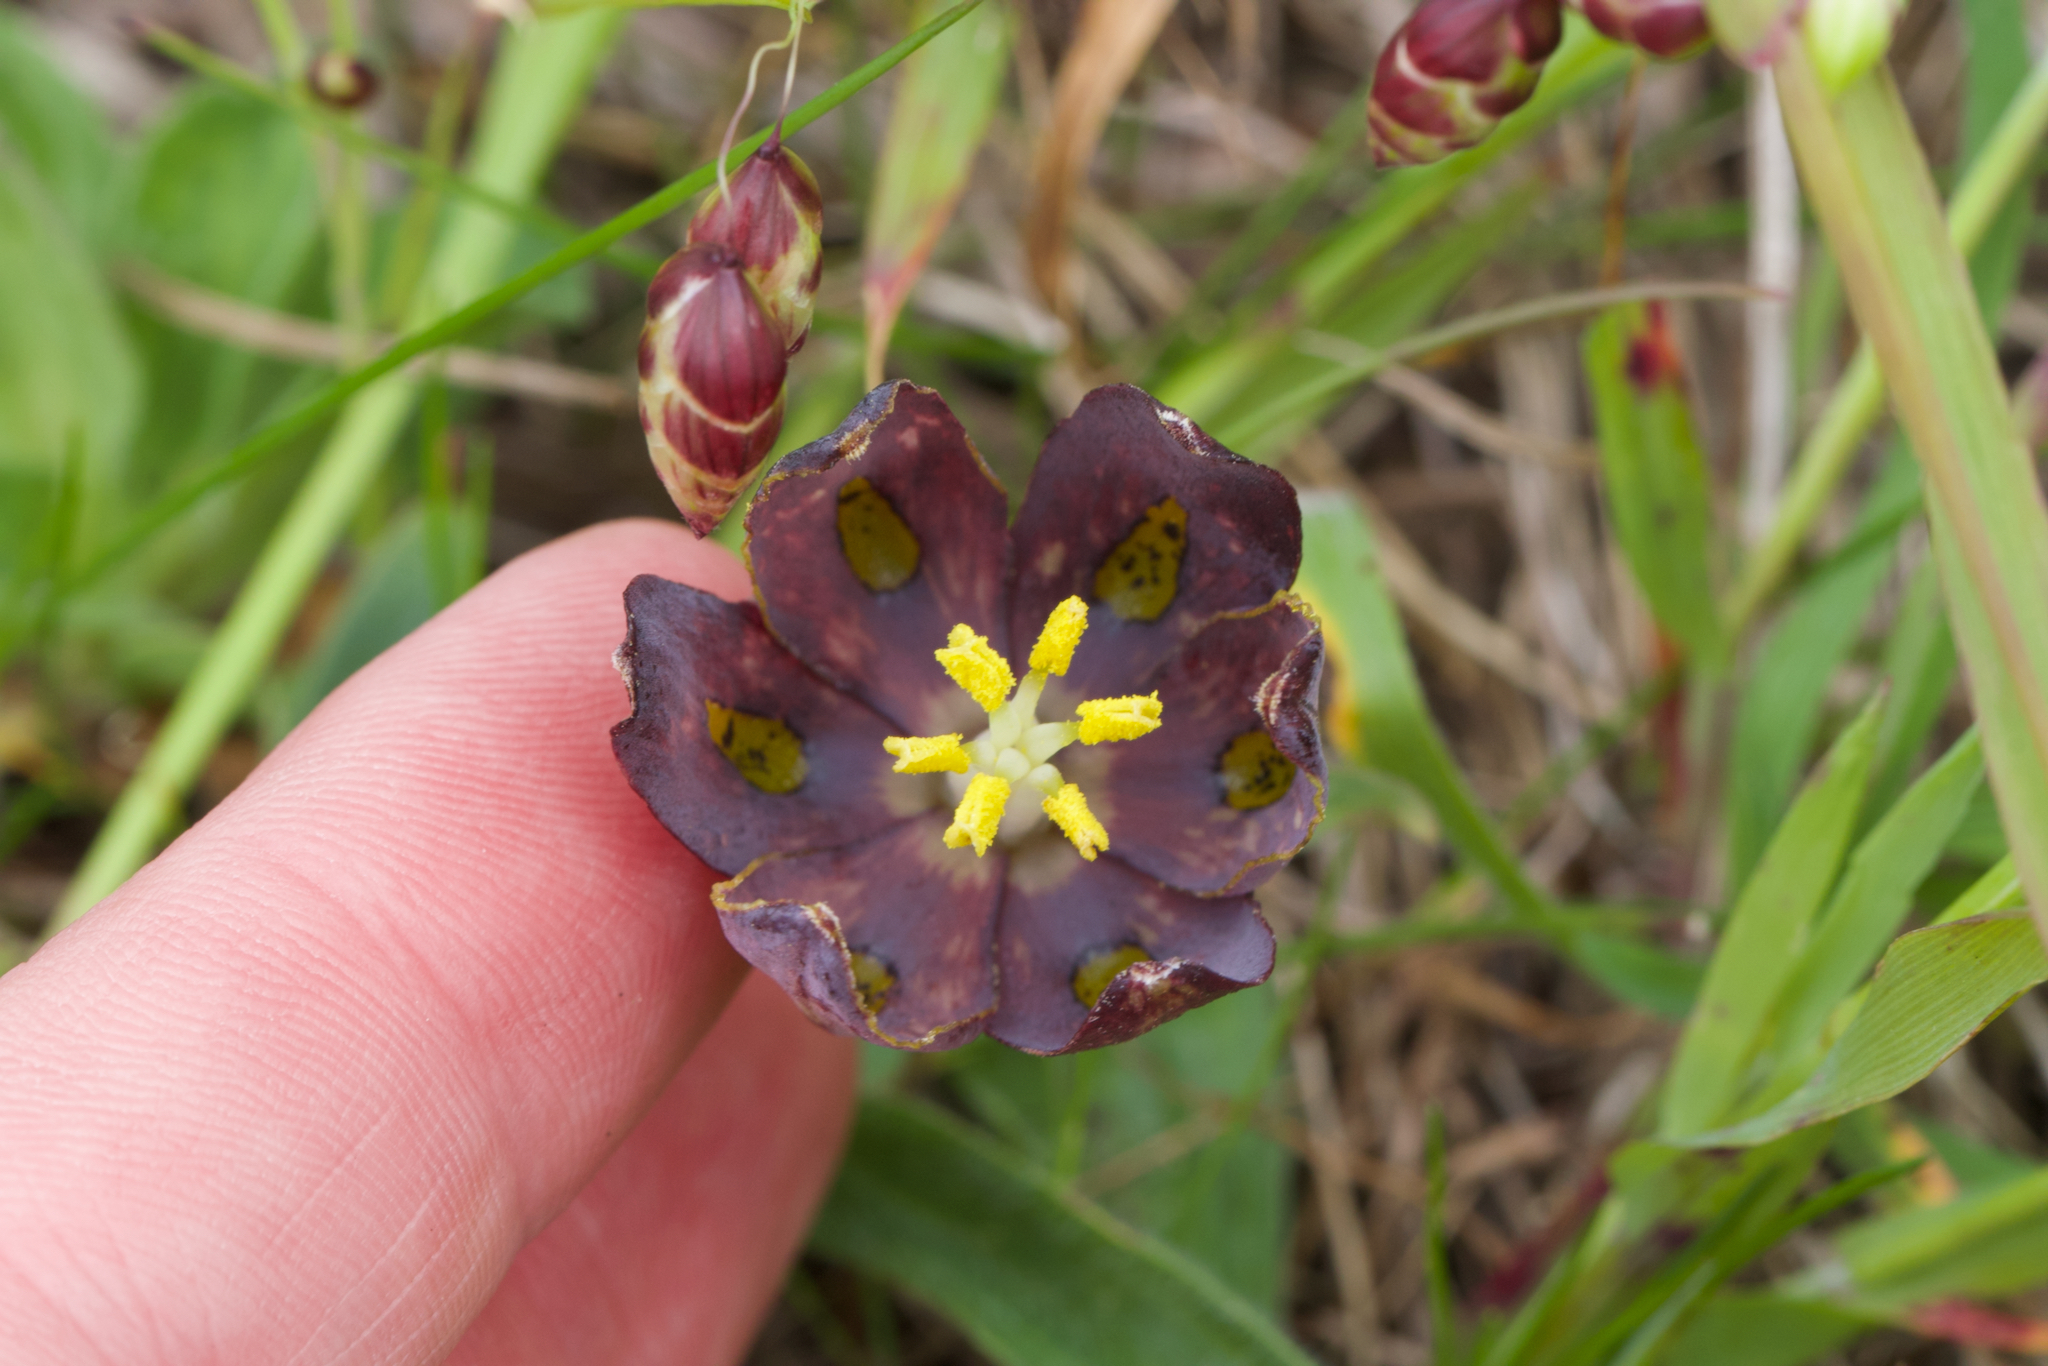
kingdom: Plantae
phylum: Tracheophyta
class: Liliopsida
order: Liliales
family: Liliaceae
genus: Fritillaria
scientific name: Fritillaria affinis
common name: Ojai fritillary
